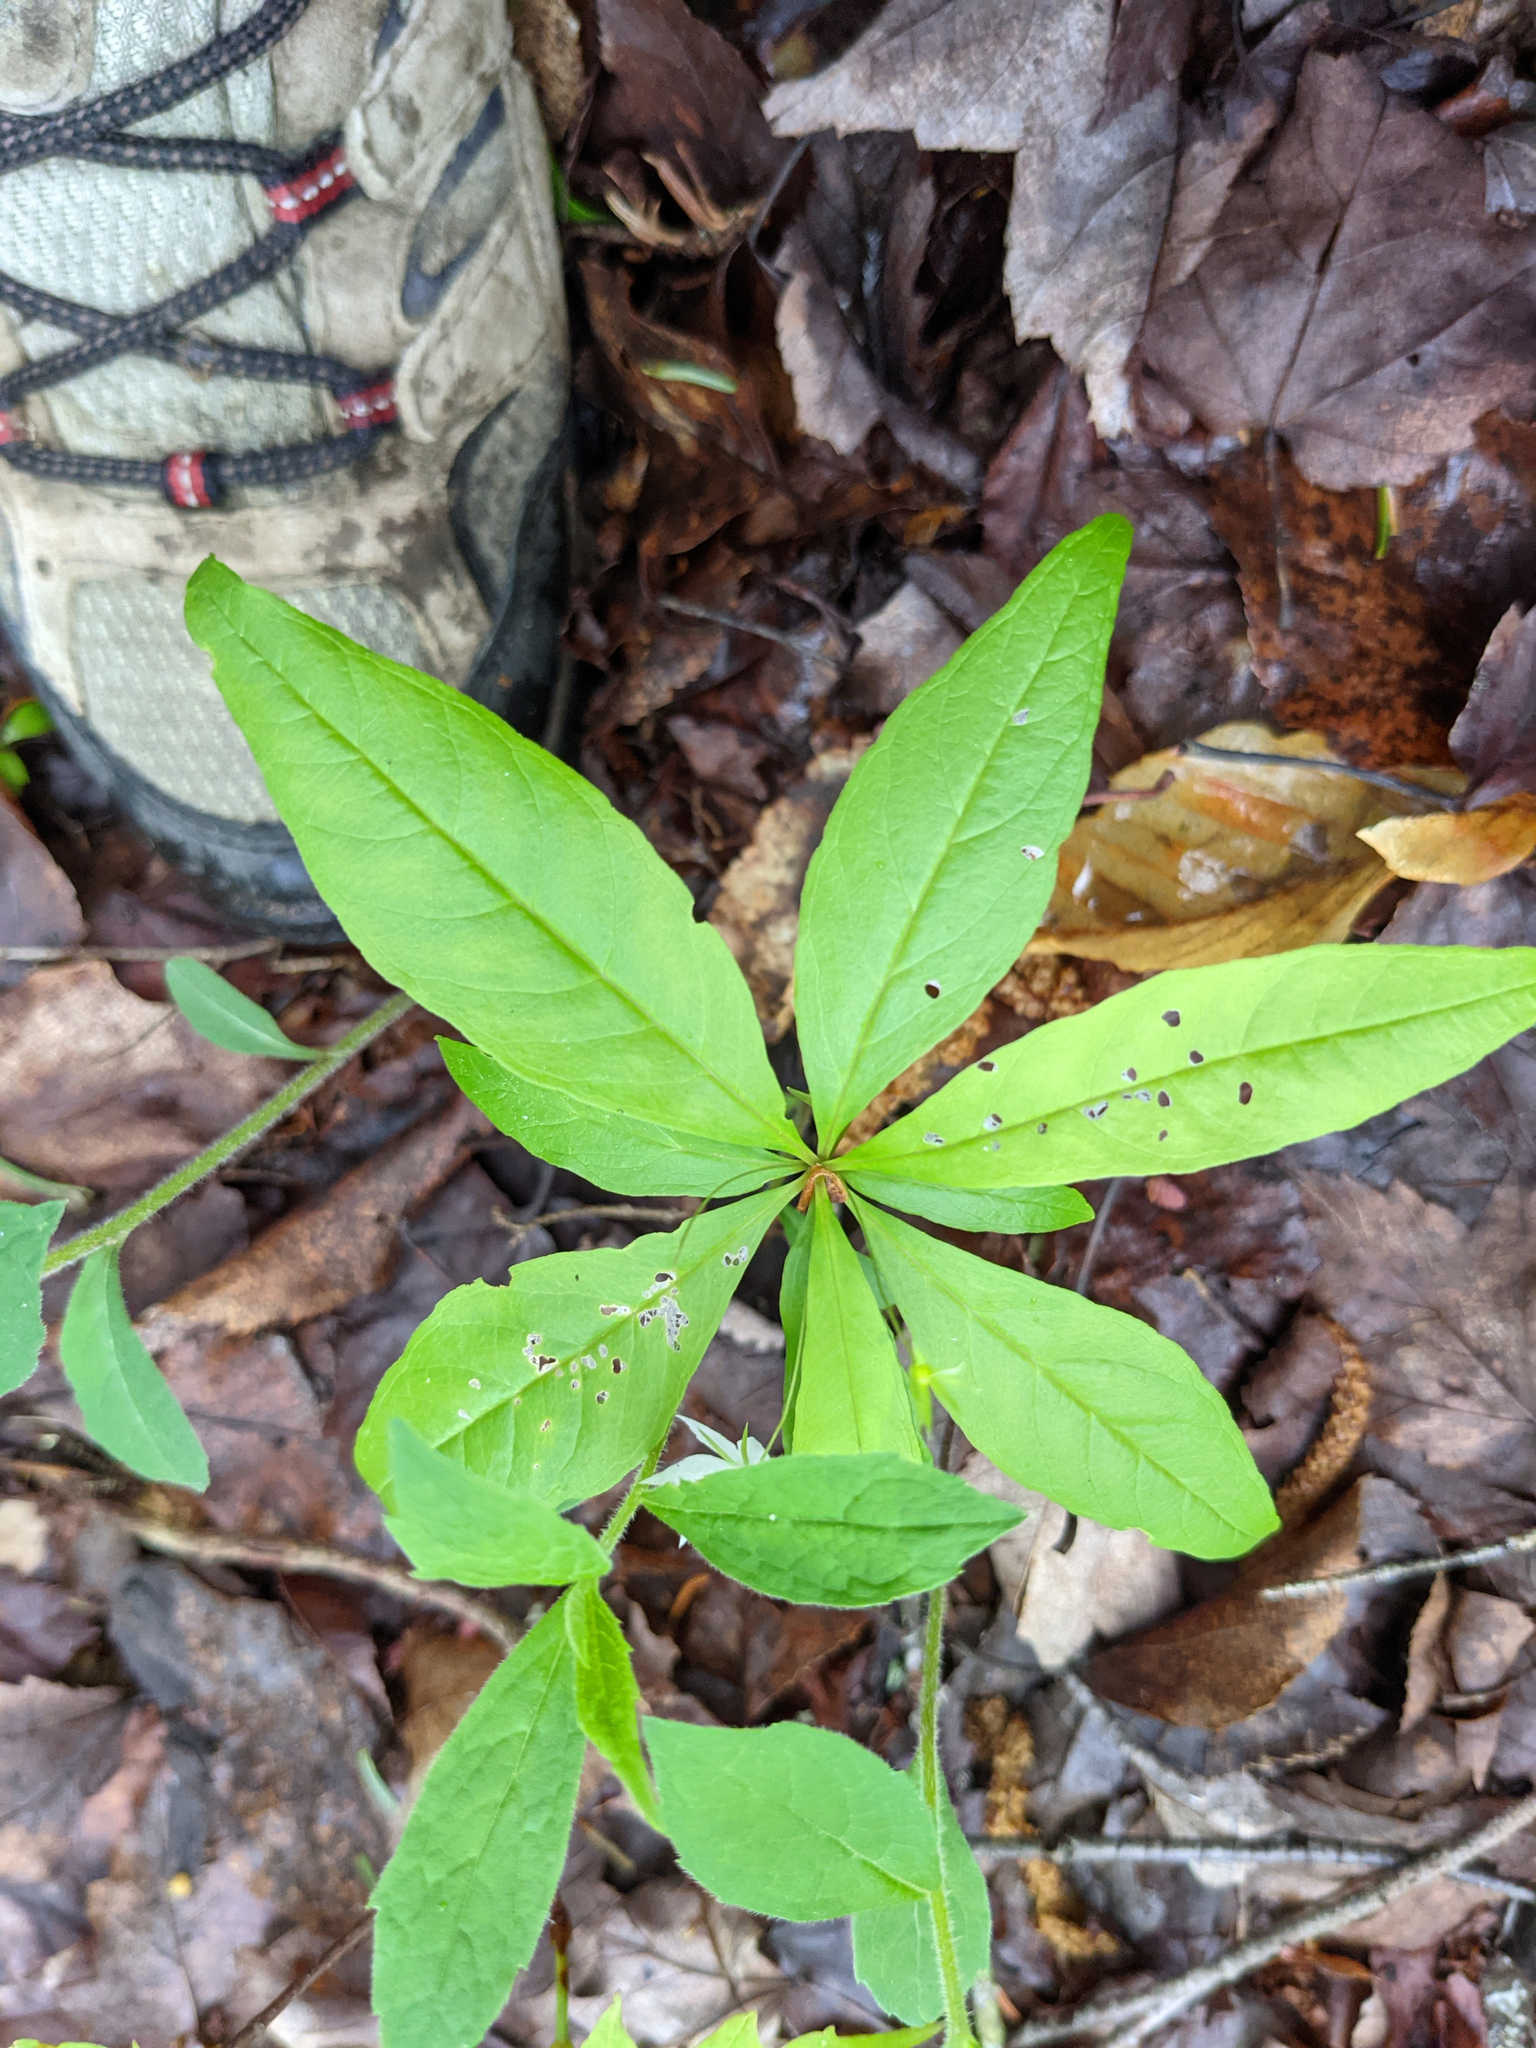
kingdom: Plantae
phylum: Tracheophyta
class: Magnoliopsida
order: Ericales
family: Primulaceae
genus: Lysimachia
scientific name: Lysimachia borealis
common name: American starflower
